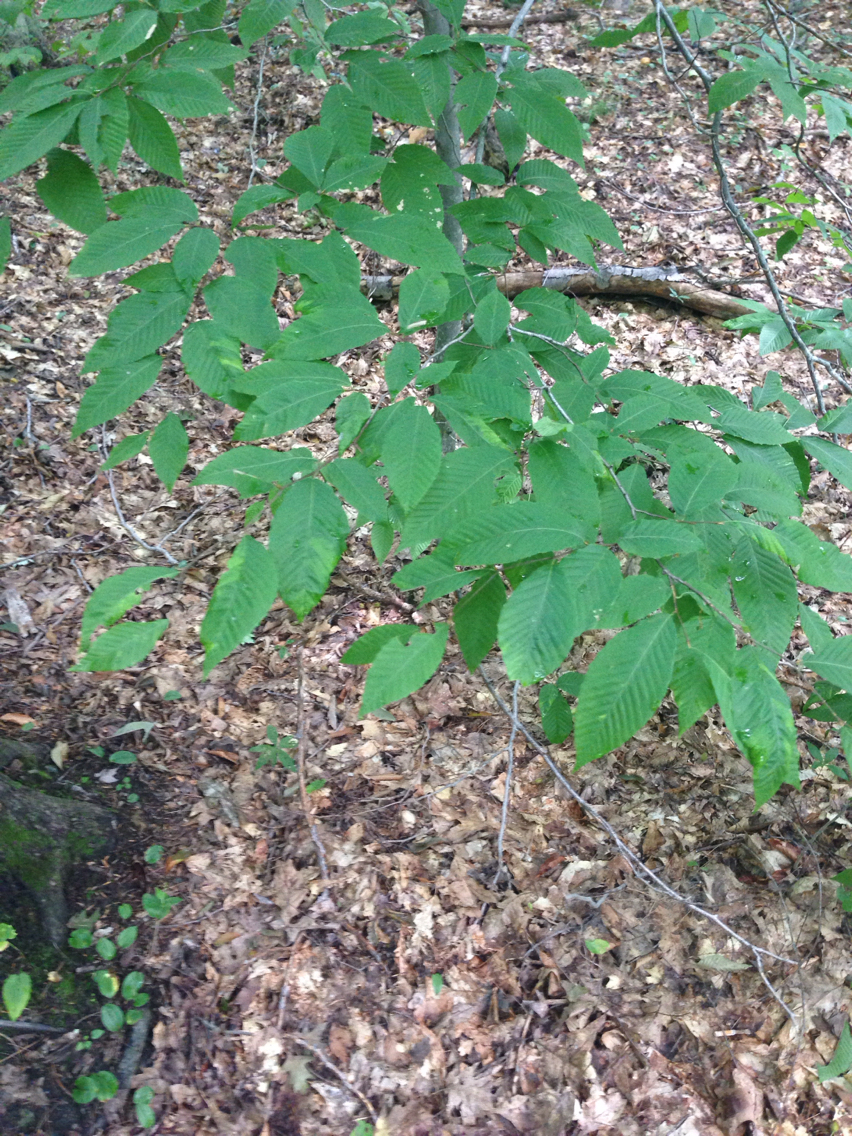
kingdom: Plantae
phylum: Tracheophyta
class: Magnoliopsida
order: Fagales
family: Fagaceae
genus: Fagus
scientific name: Fagus grandifolia
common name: American beech
